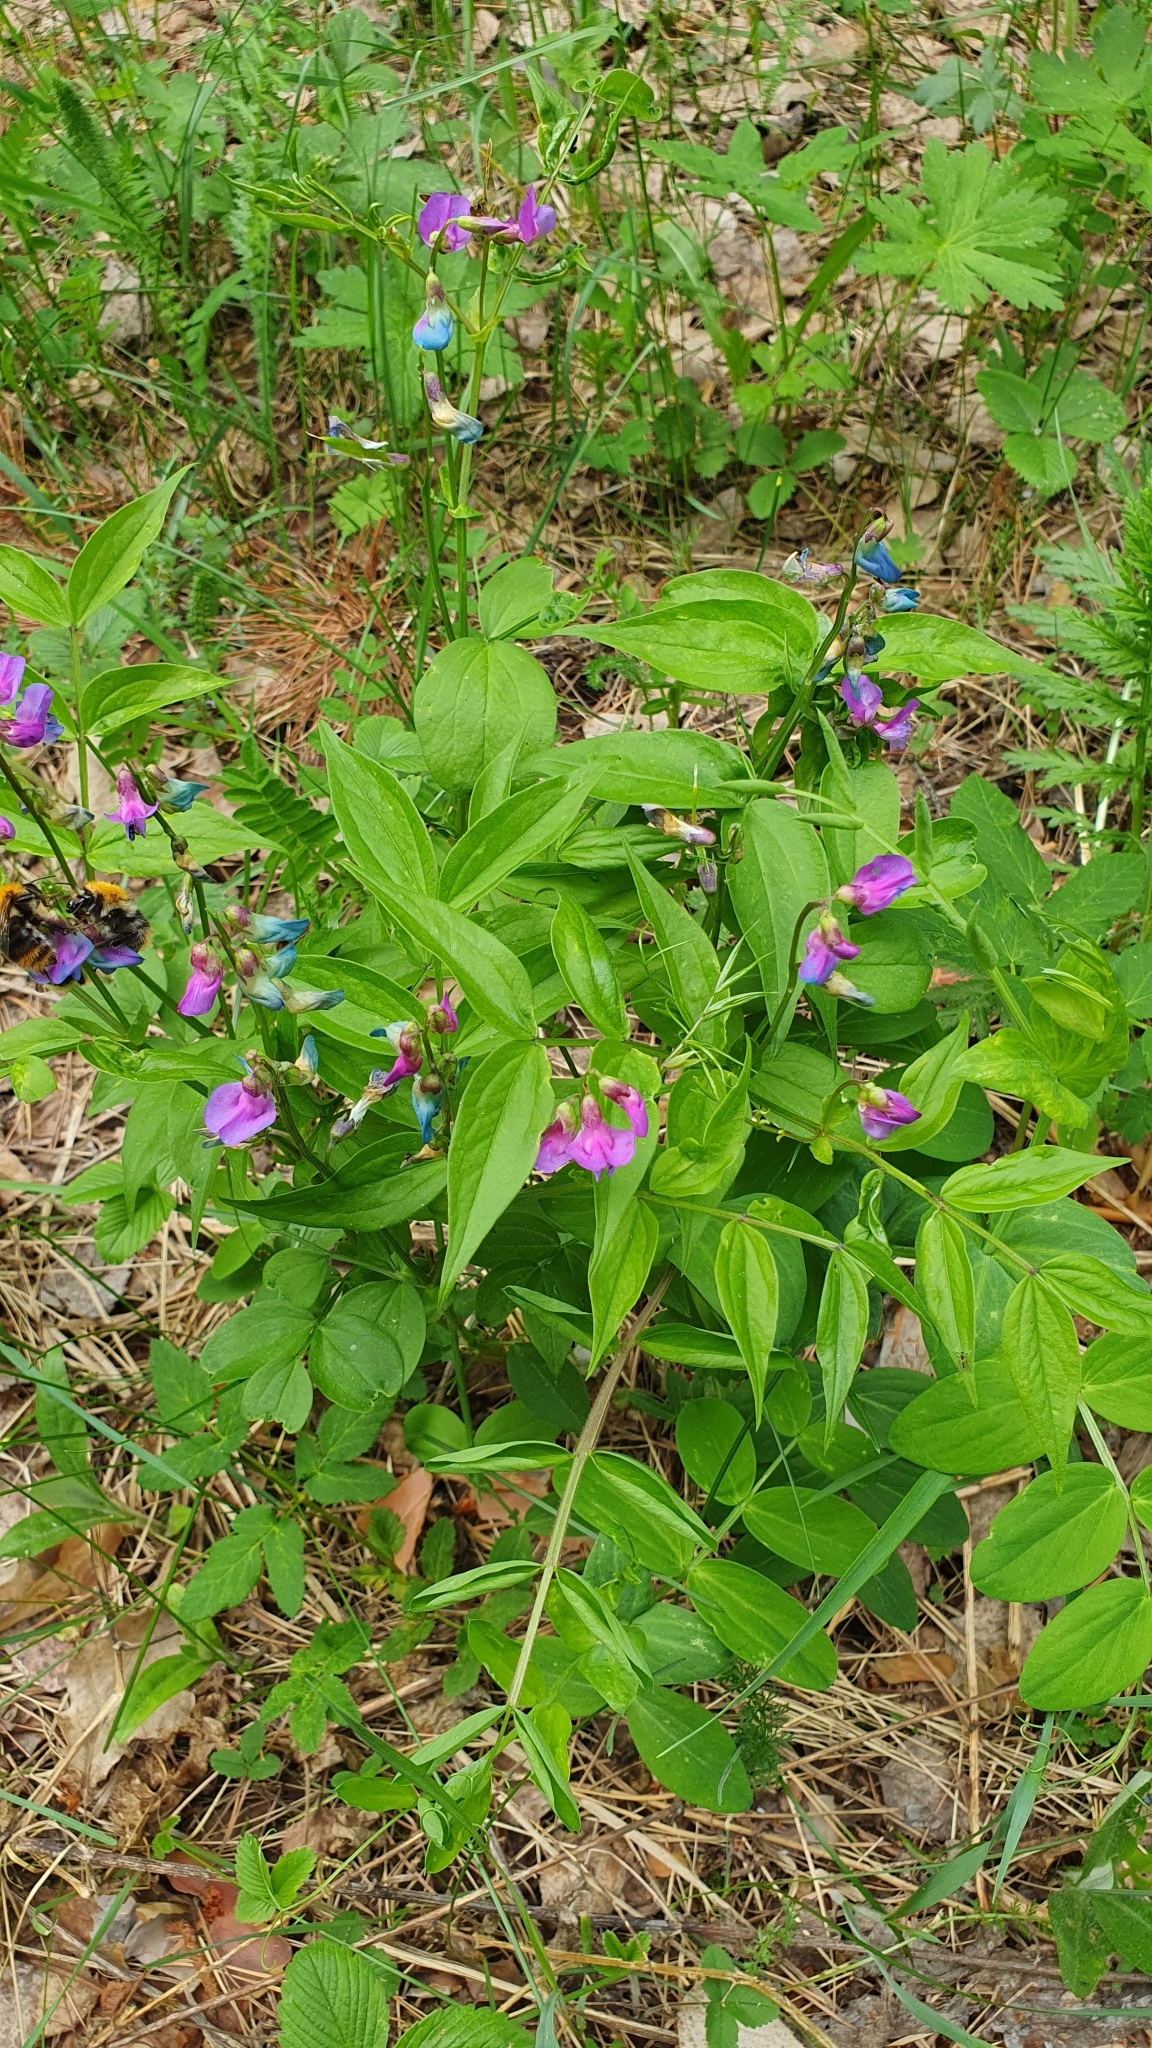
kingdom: Plantae
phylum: Tracheophyta
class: Magnoliopsida
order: Fabales
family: Fabaceae
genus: Lathyrus
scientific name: Lathyrus vernus
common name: Spring pea
